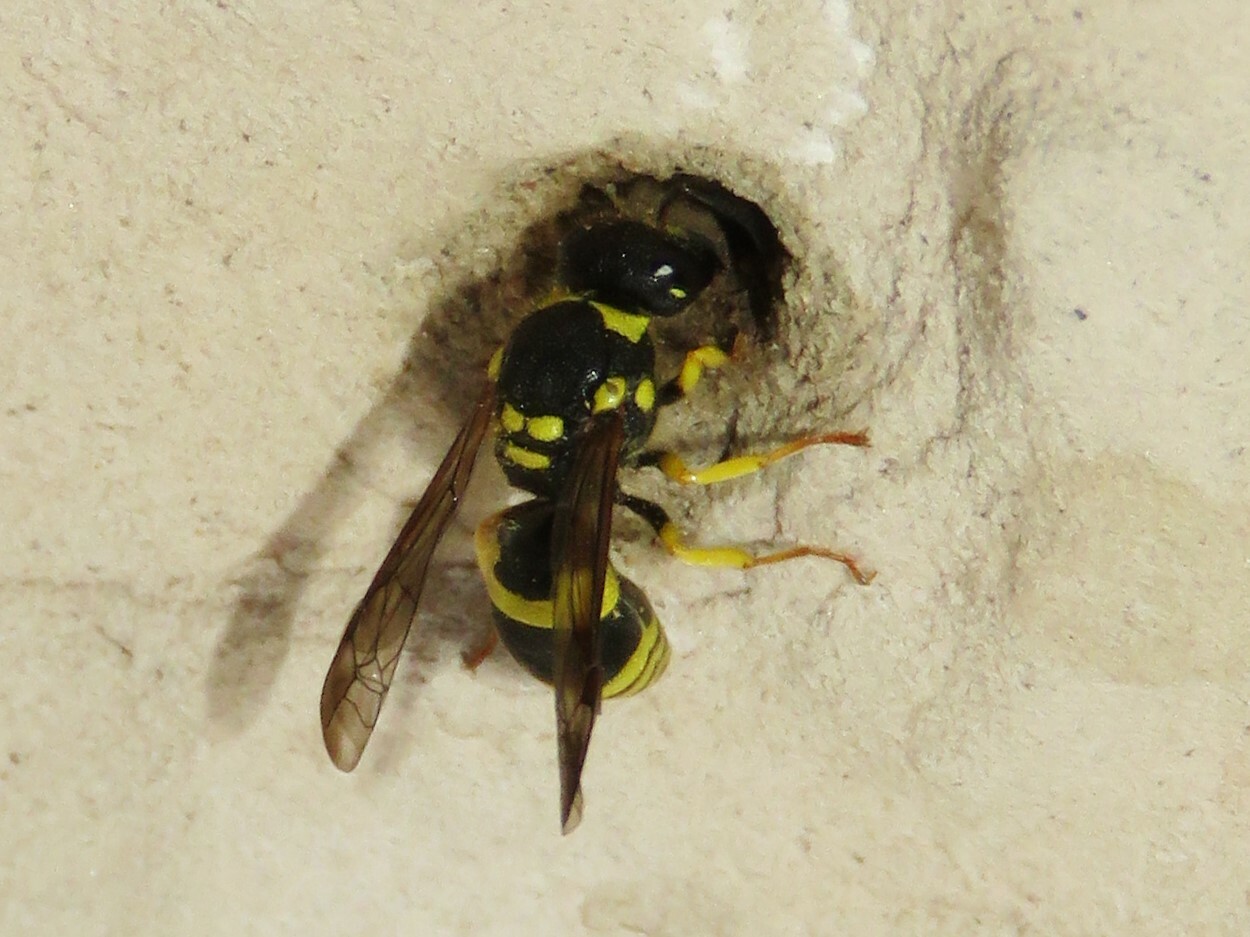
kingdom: Animalia
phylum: Arthropoda
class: Insecta
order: Hymenoptera
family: Vespidae
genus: Ancistrocerus
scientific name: Ancistrocerus gazella
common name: European tube wasp
